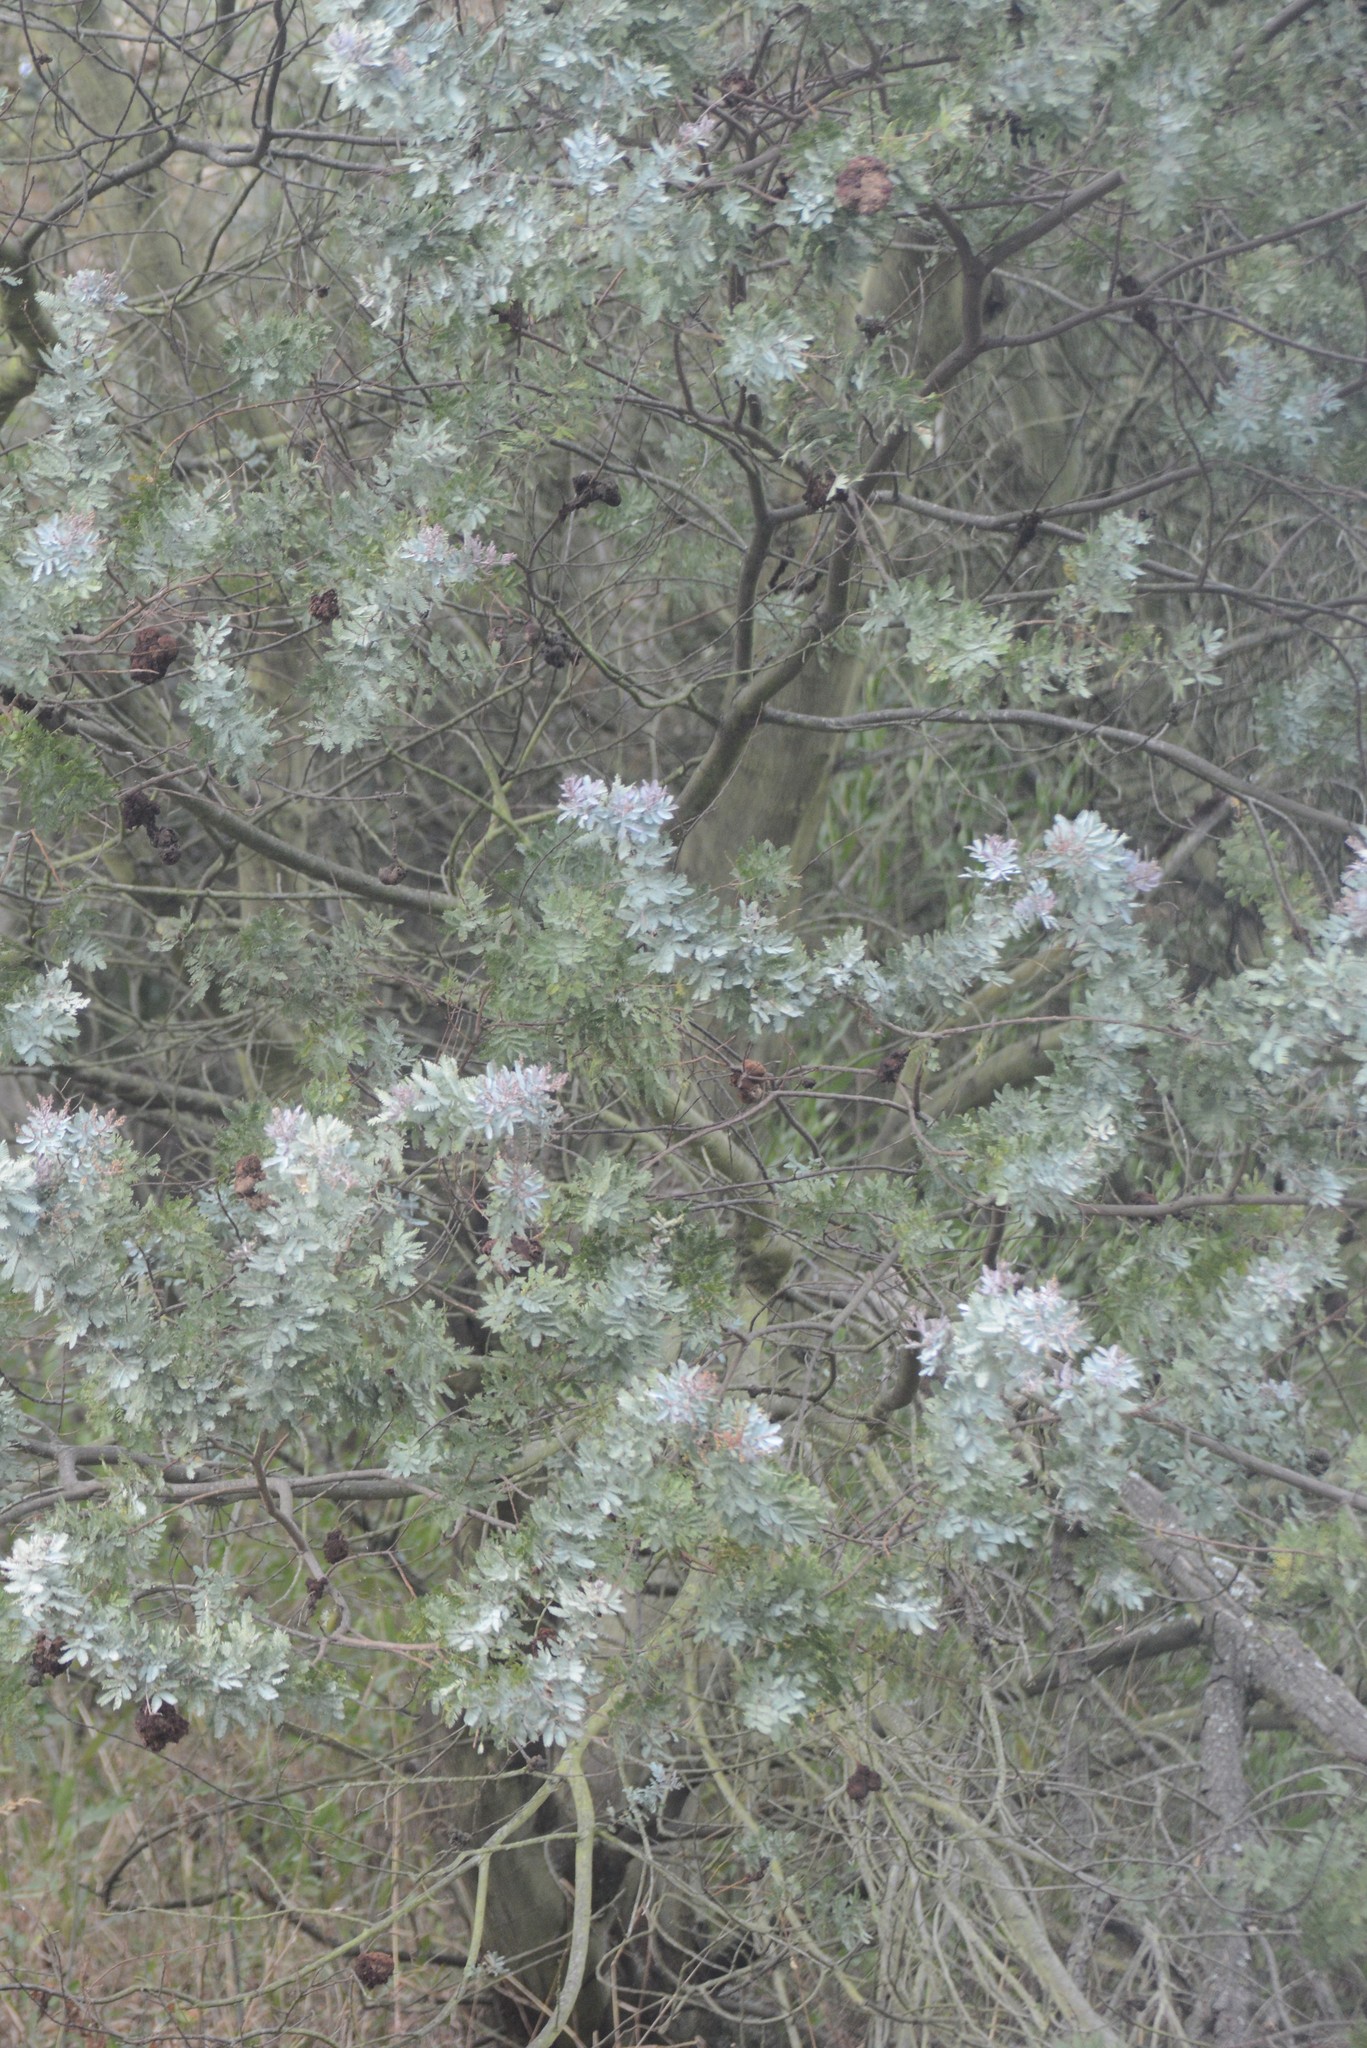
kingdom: Plantae
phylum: Tracheophyta
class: Magnoliopsida
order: Fabales
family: Fabaceae
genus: Acacia
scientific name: Acacia baileyana
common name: Cootamundra wattle
